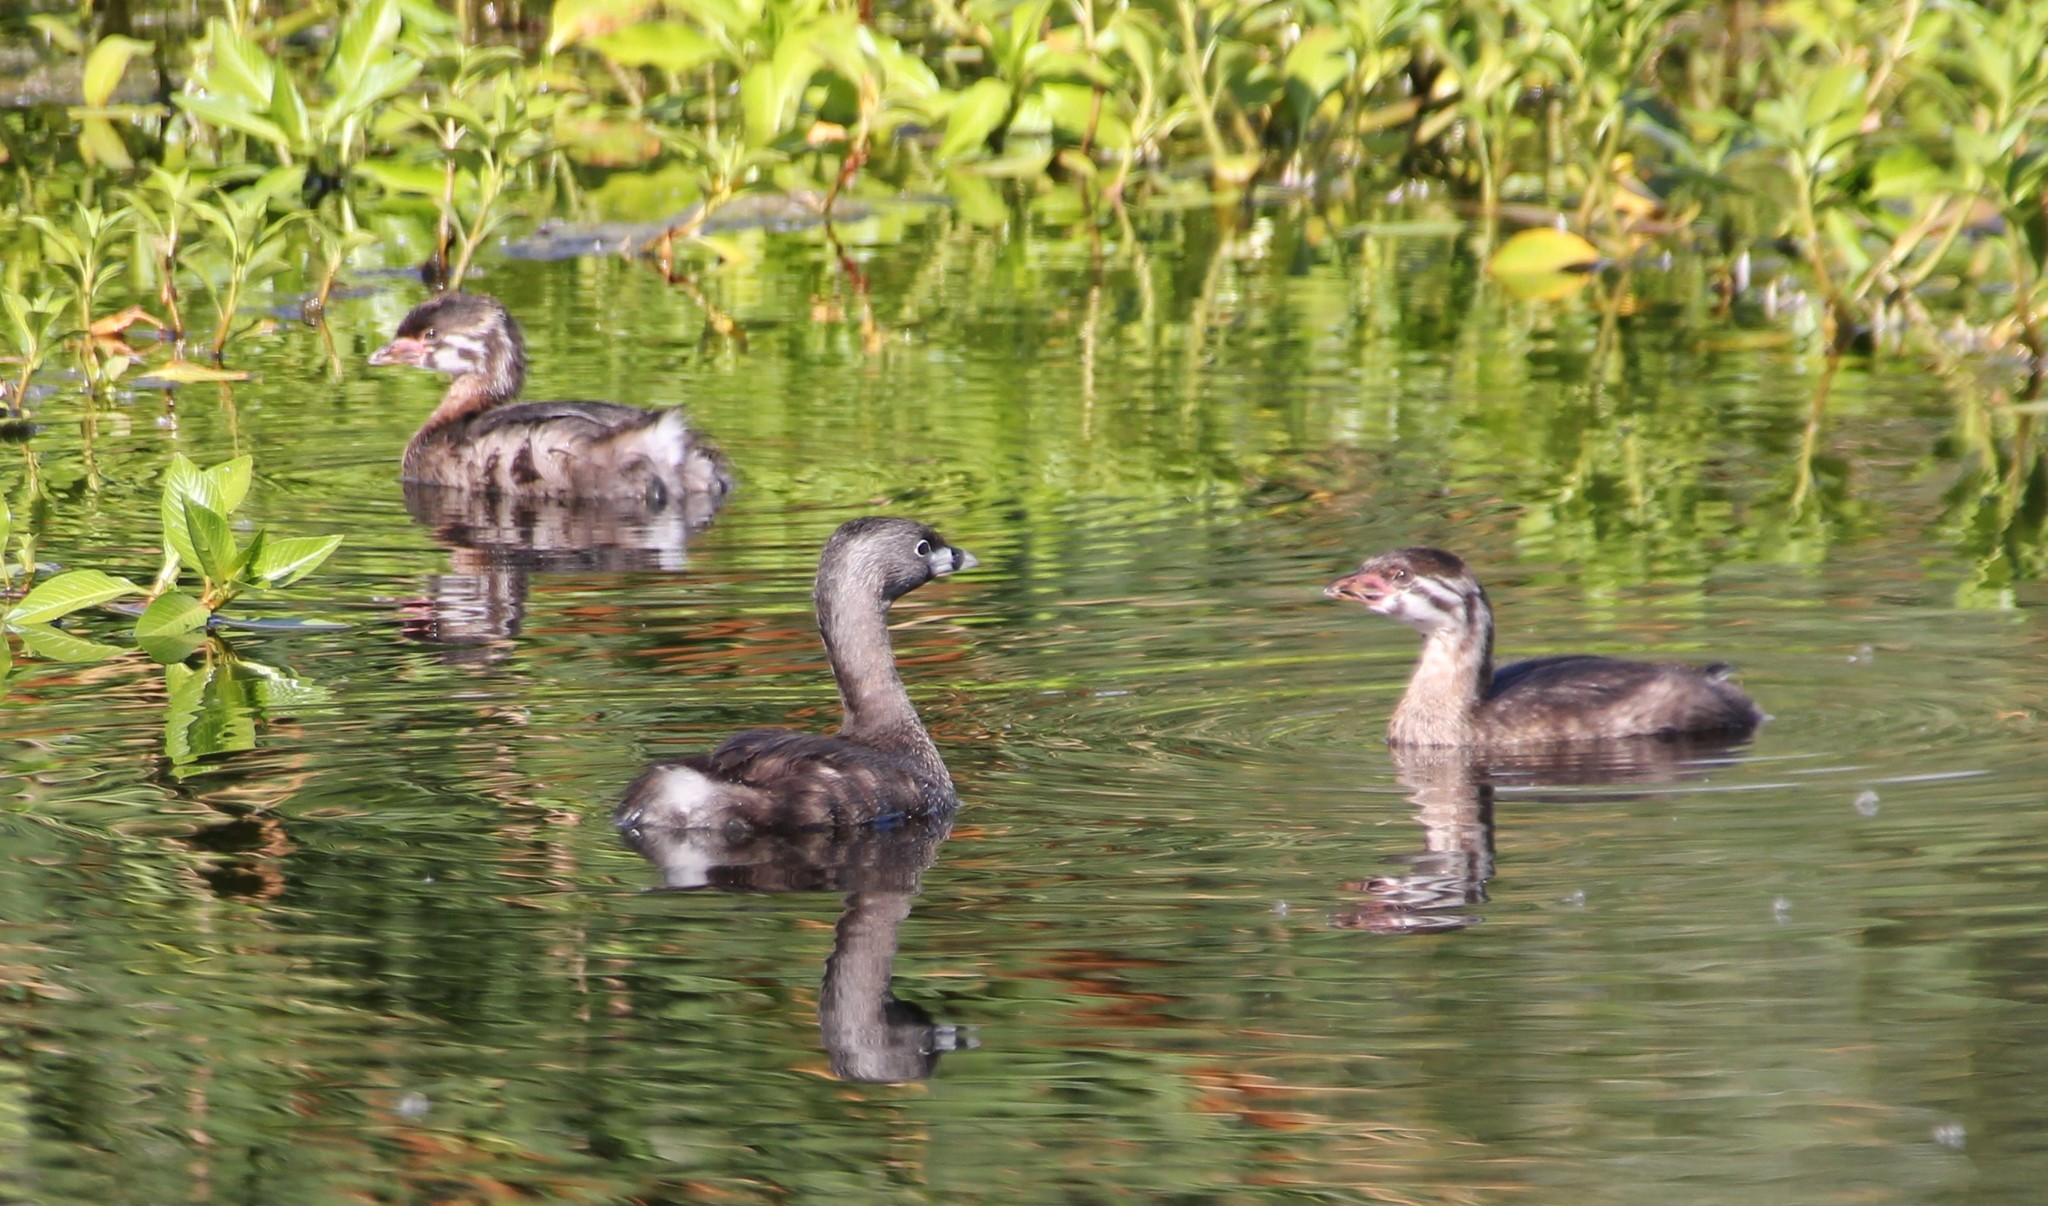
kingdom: Animalia
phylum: Chordata
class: Aves
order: Podicipediformes
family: Podicipedidae
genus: Podilymbus
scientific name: Podilymbus podiceps
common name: Pied-billed grebe
